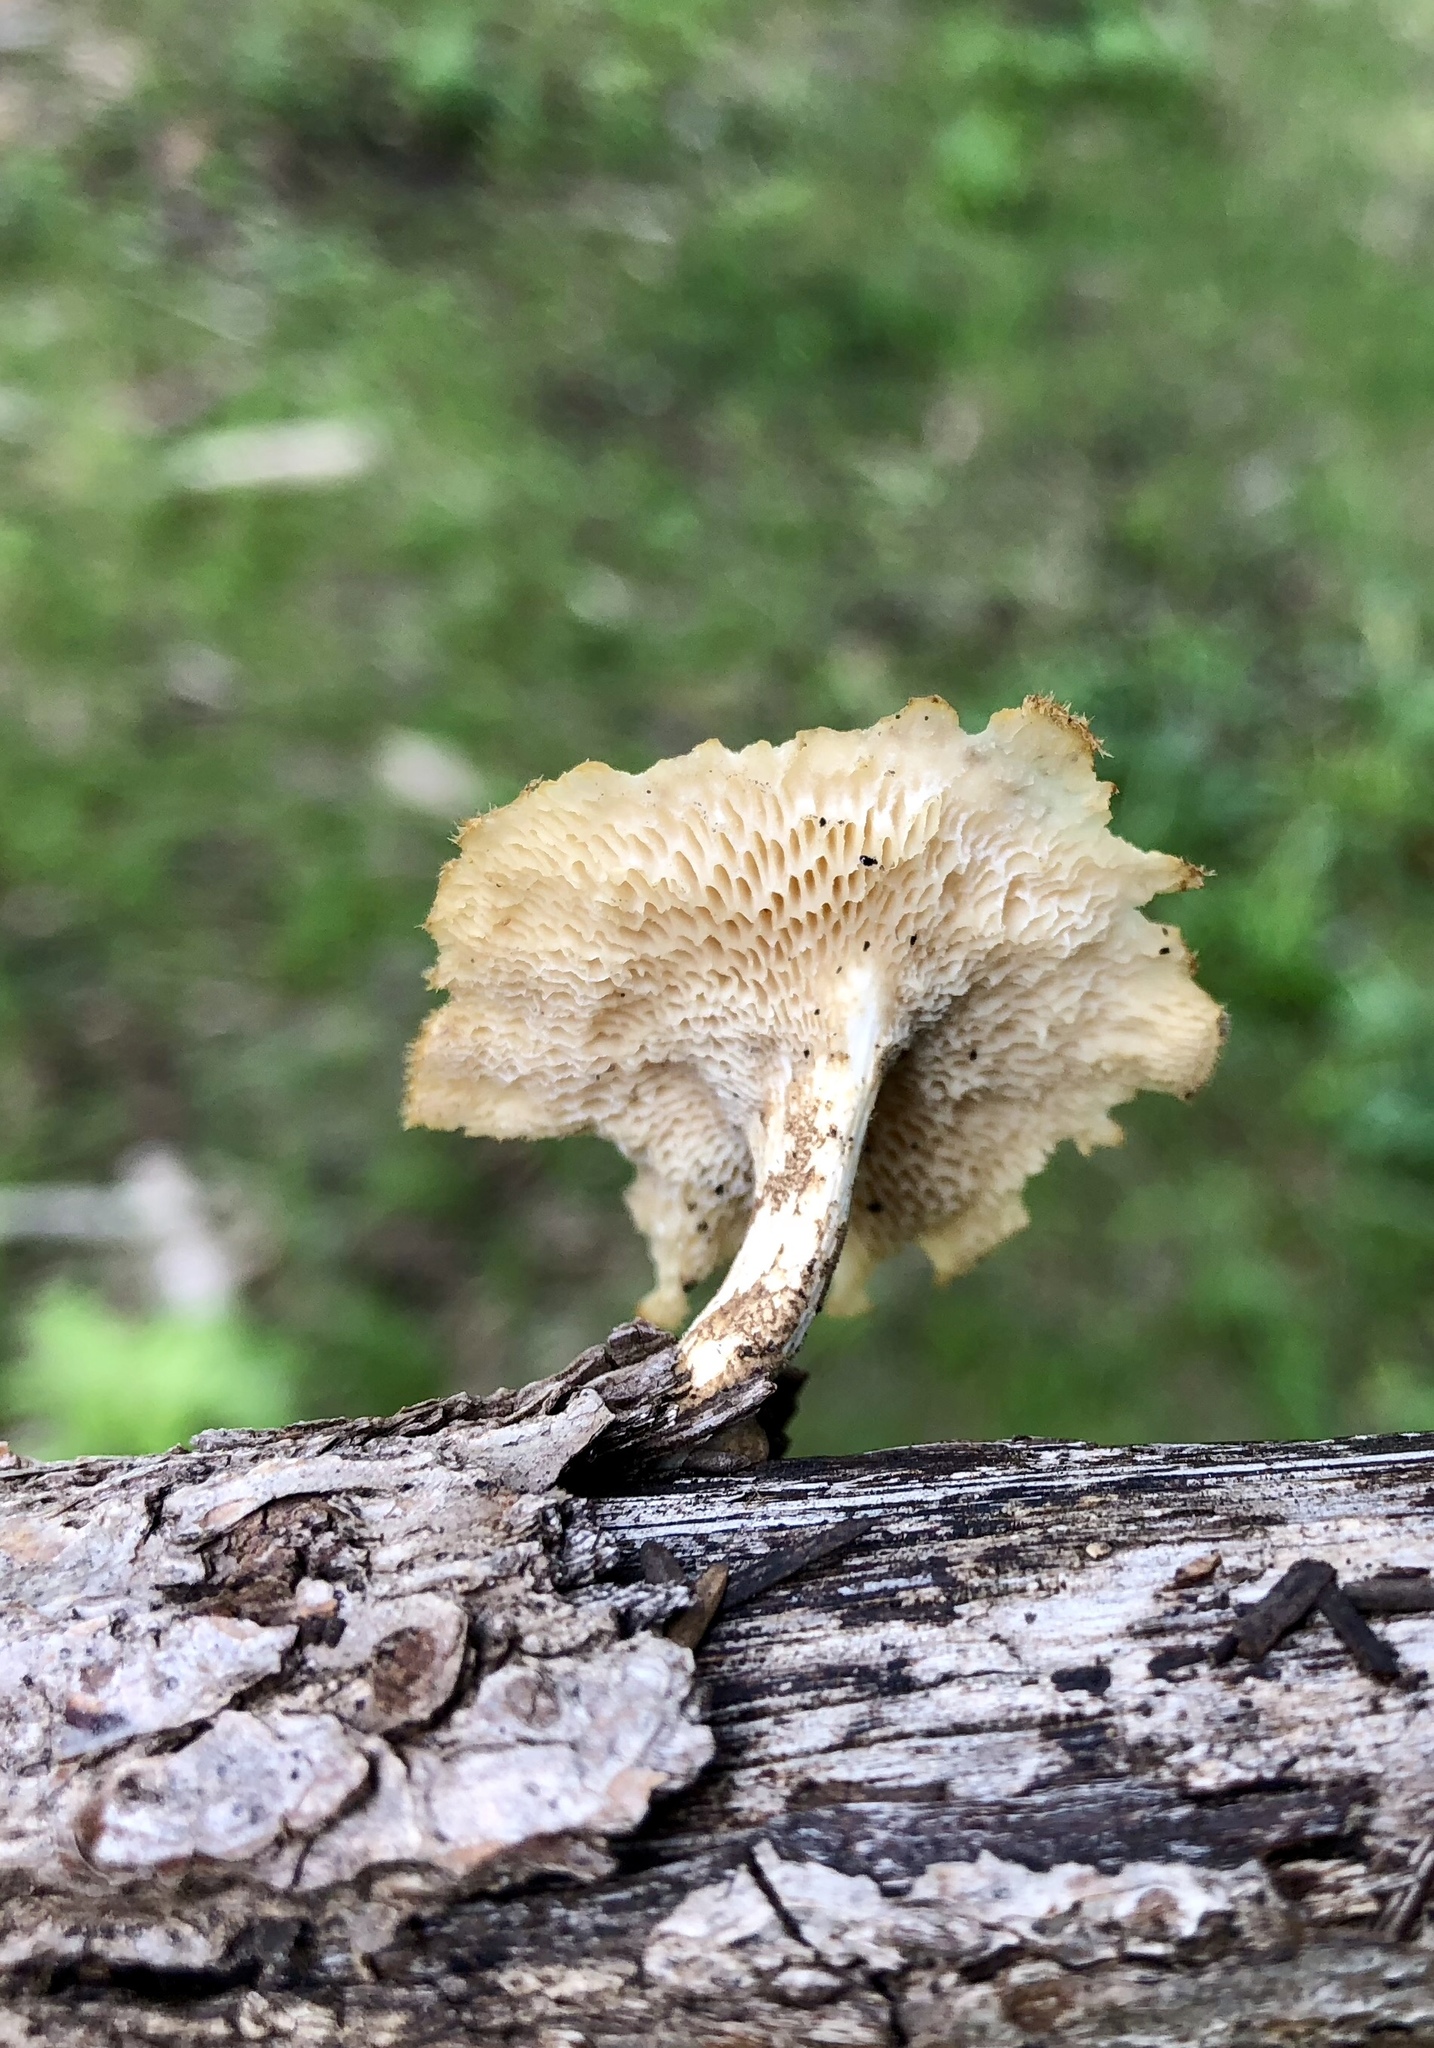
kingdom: Fungi
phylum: Basidiomycota
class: Agaricomycetes
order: Polyporales
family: Polyporaceae
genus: Lentinus
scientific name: Lentinus arcularius
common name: Spring polypore
